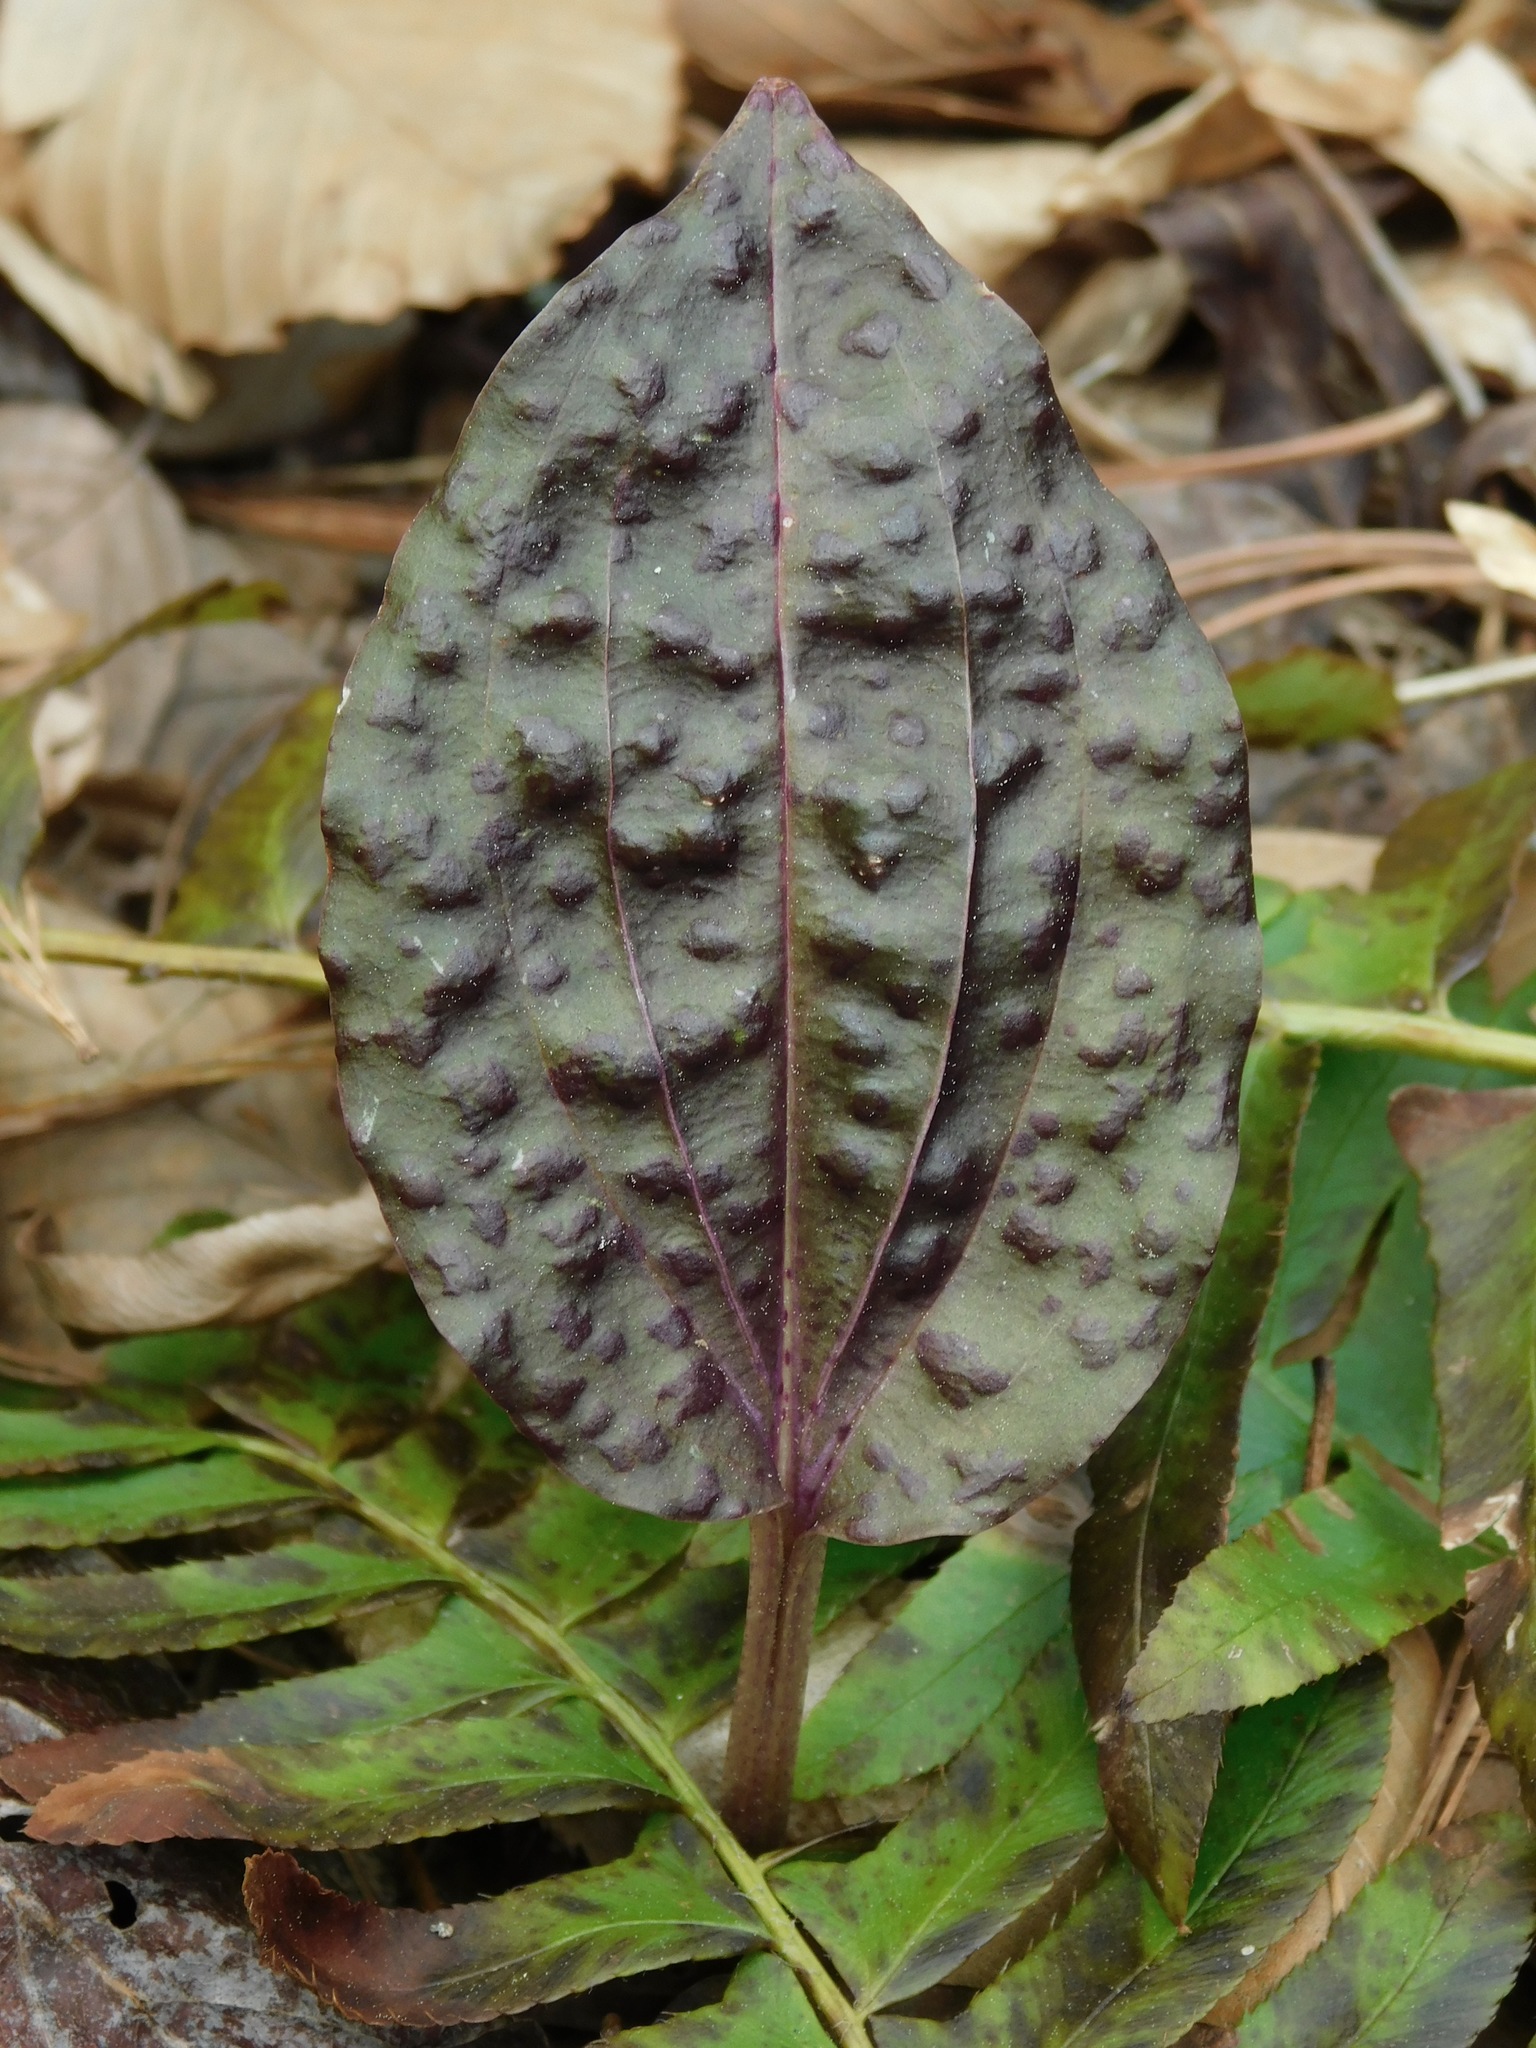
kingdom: Plantae
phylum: Tracheophyta
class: Liliopsida
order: Asparagales
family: Orchidaceae
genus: Tipularia
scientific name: Tipularia discolor
